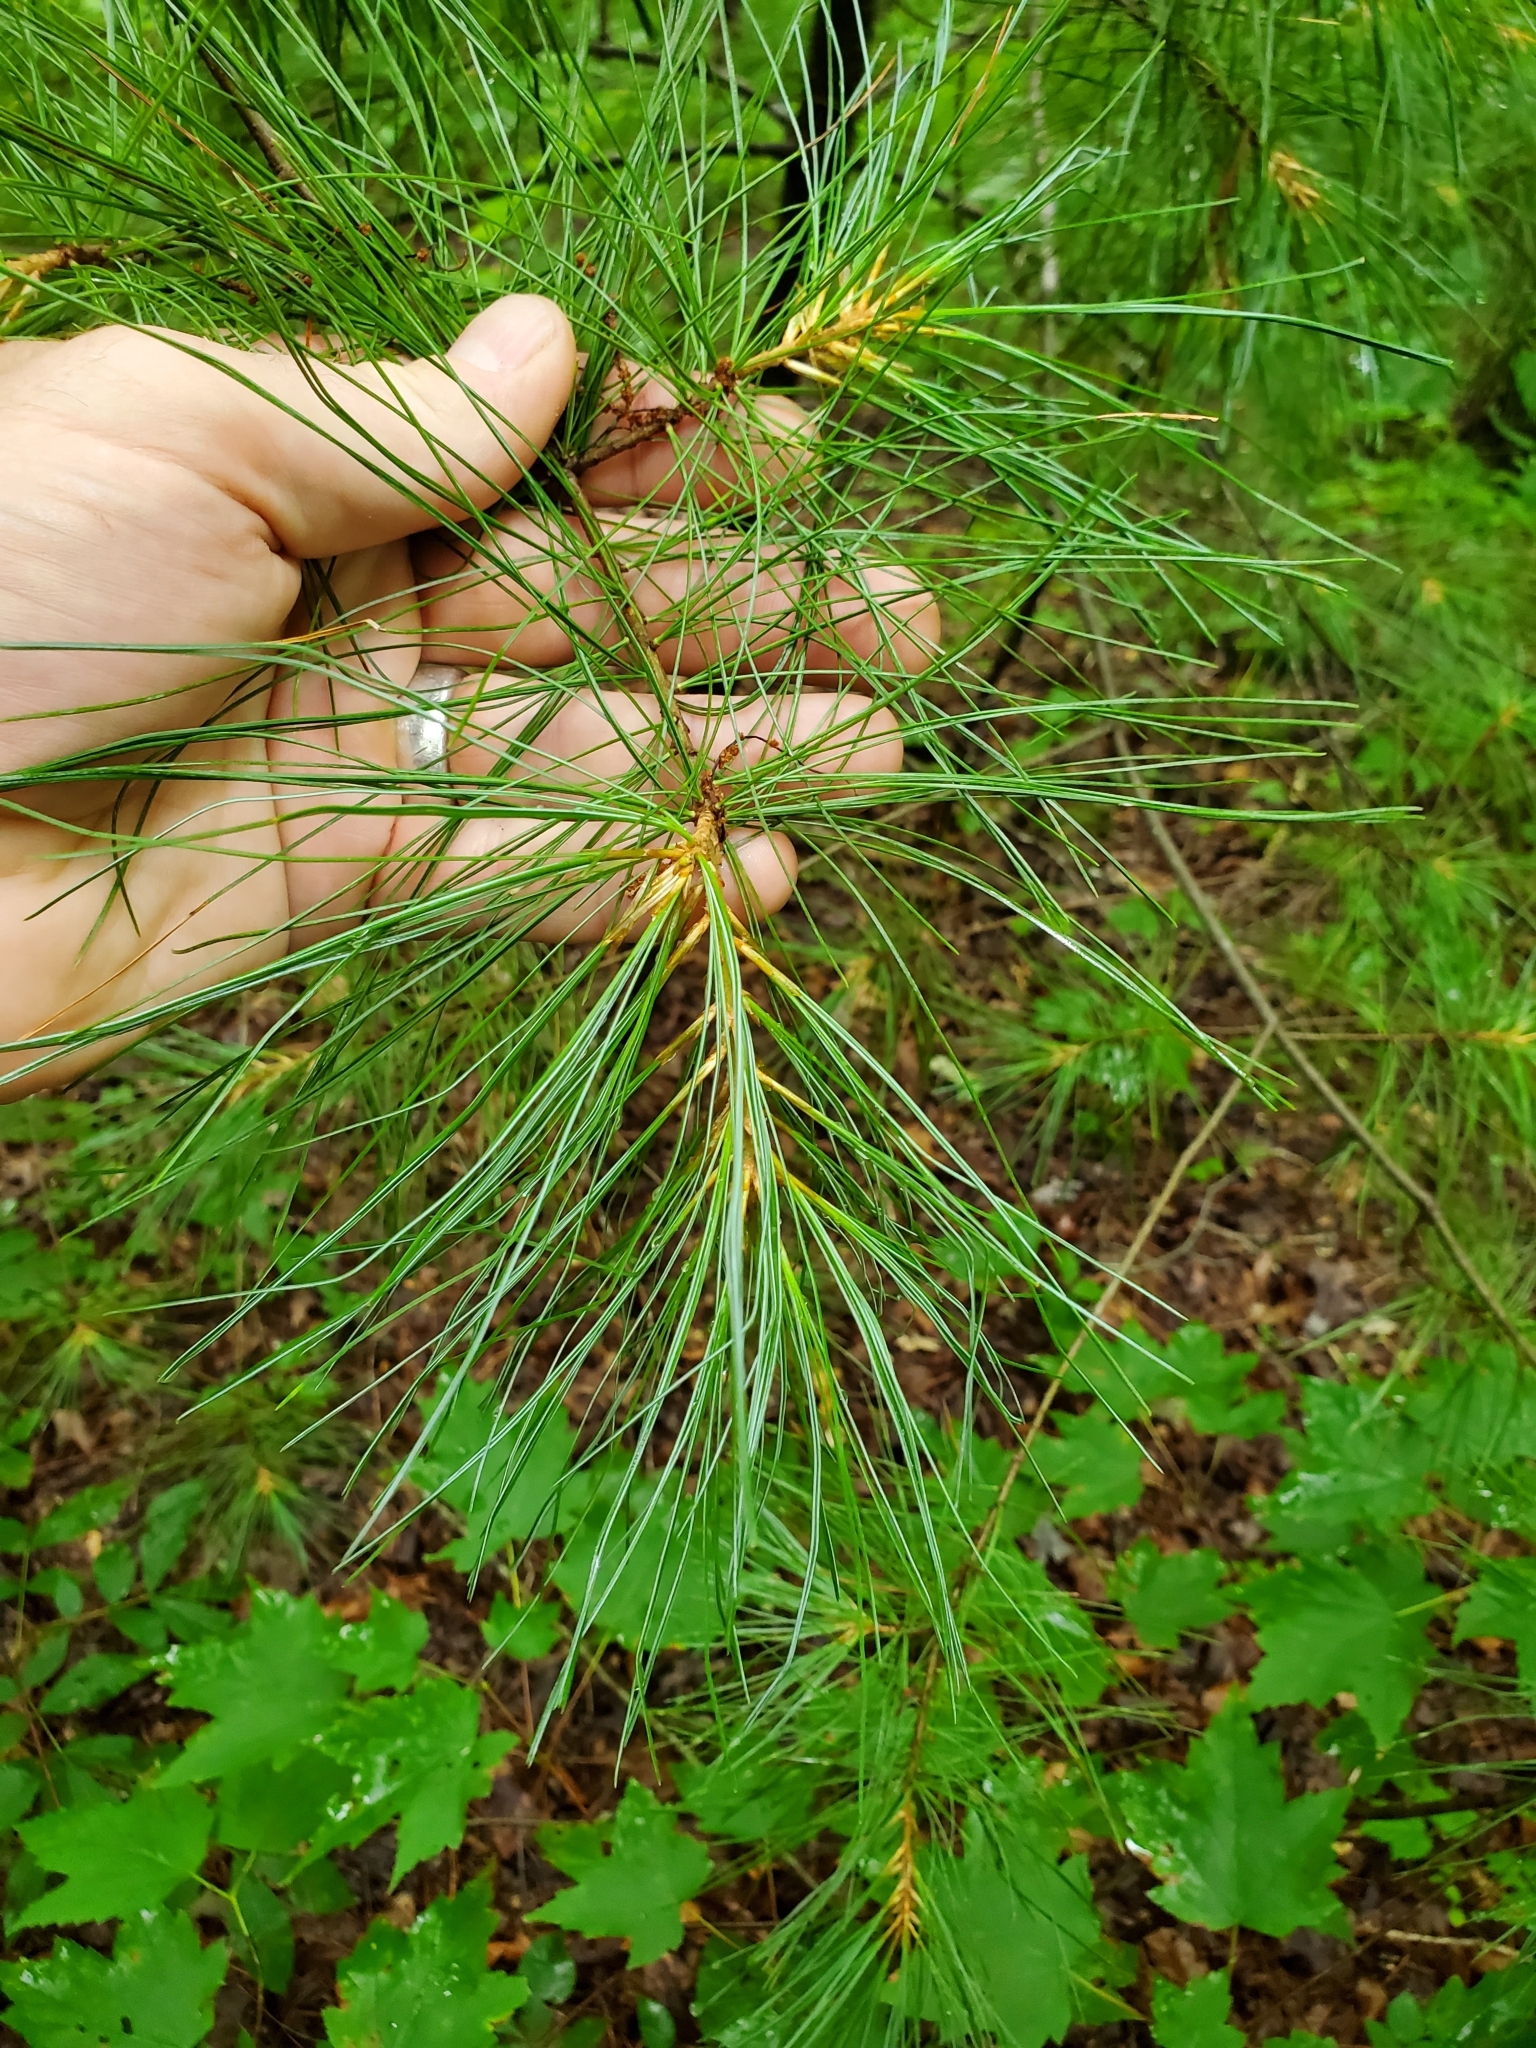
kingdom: Plantae
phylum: Tracheophyta
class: Pinopsida
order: Pinales
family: Pinaceae
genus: Pinus
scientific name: Pinus strobus
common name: Weymouth pine
